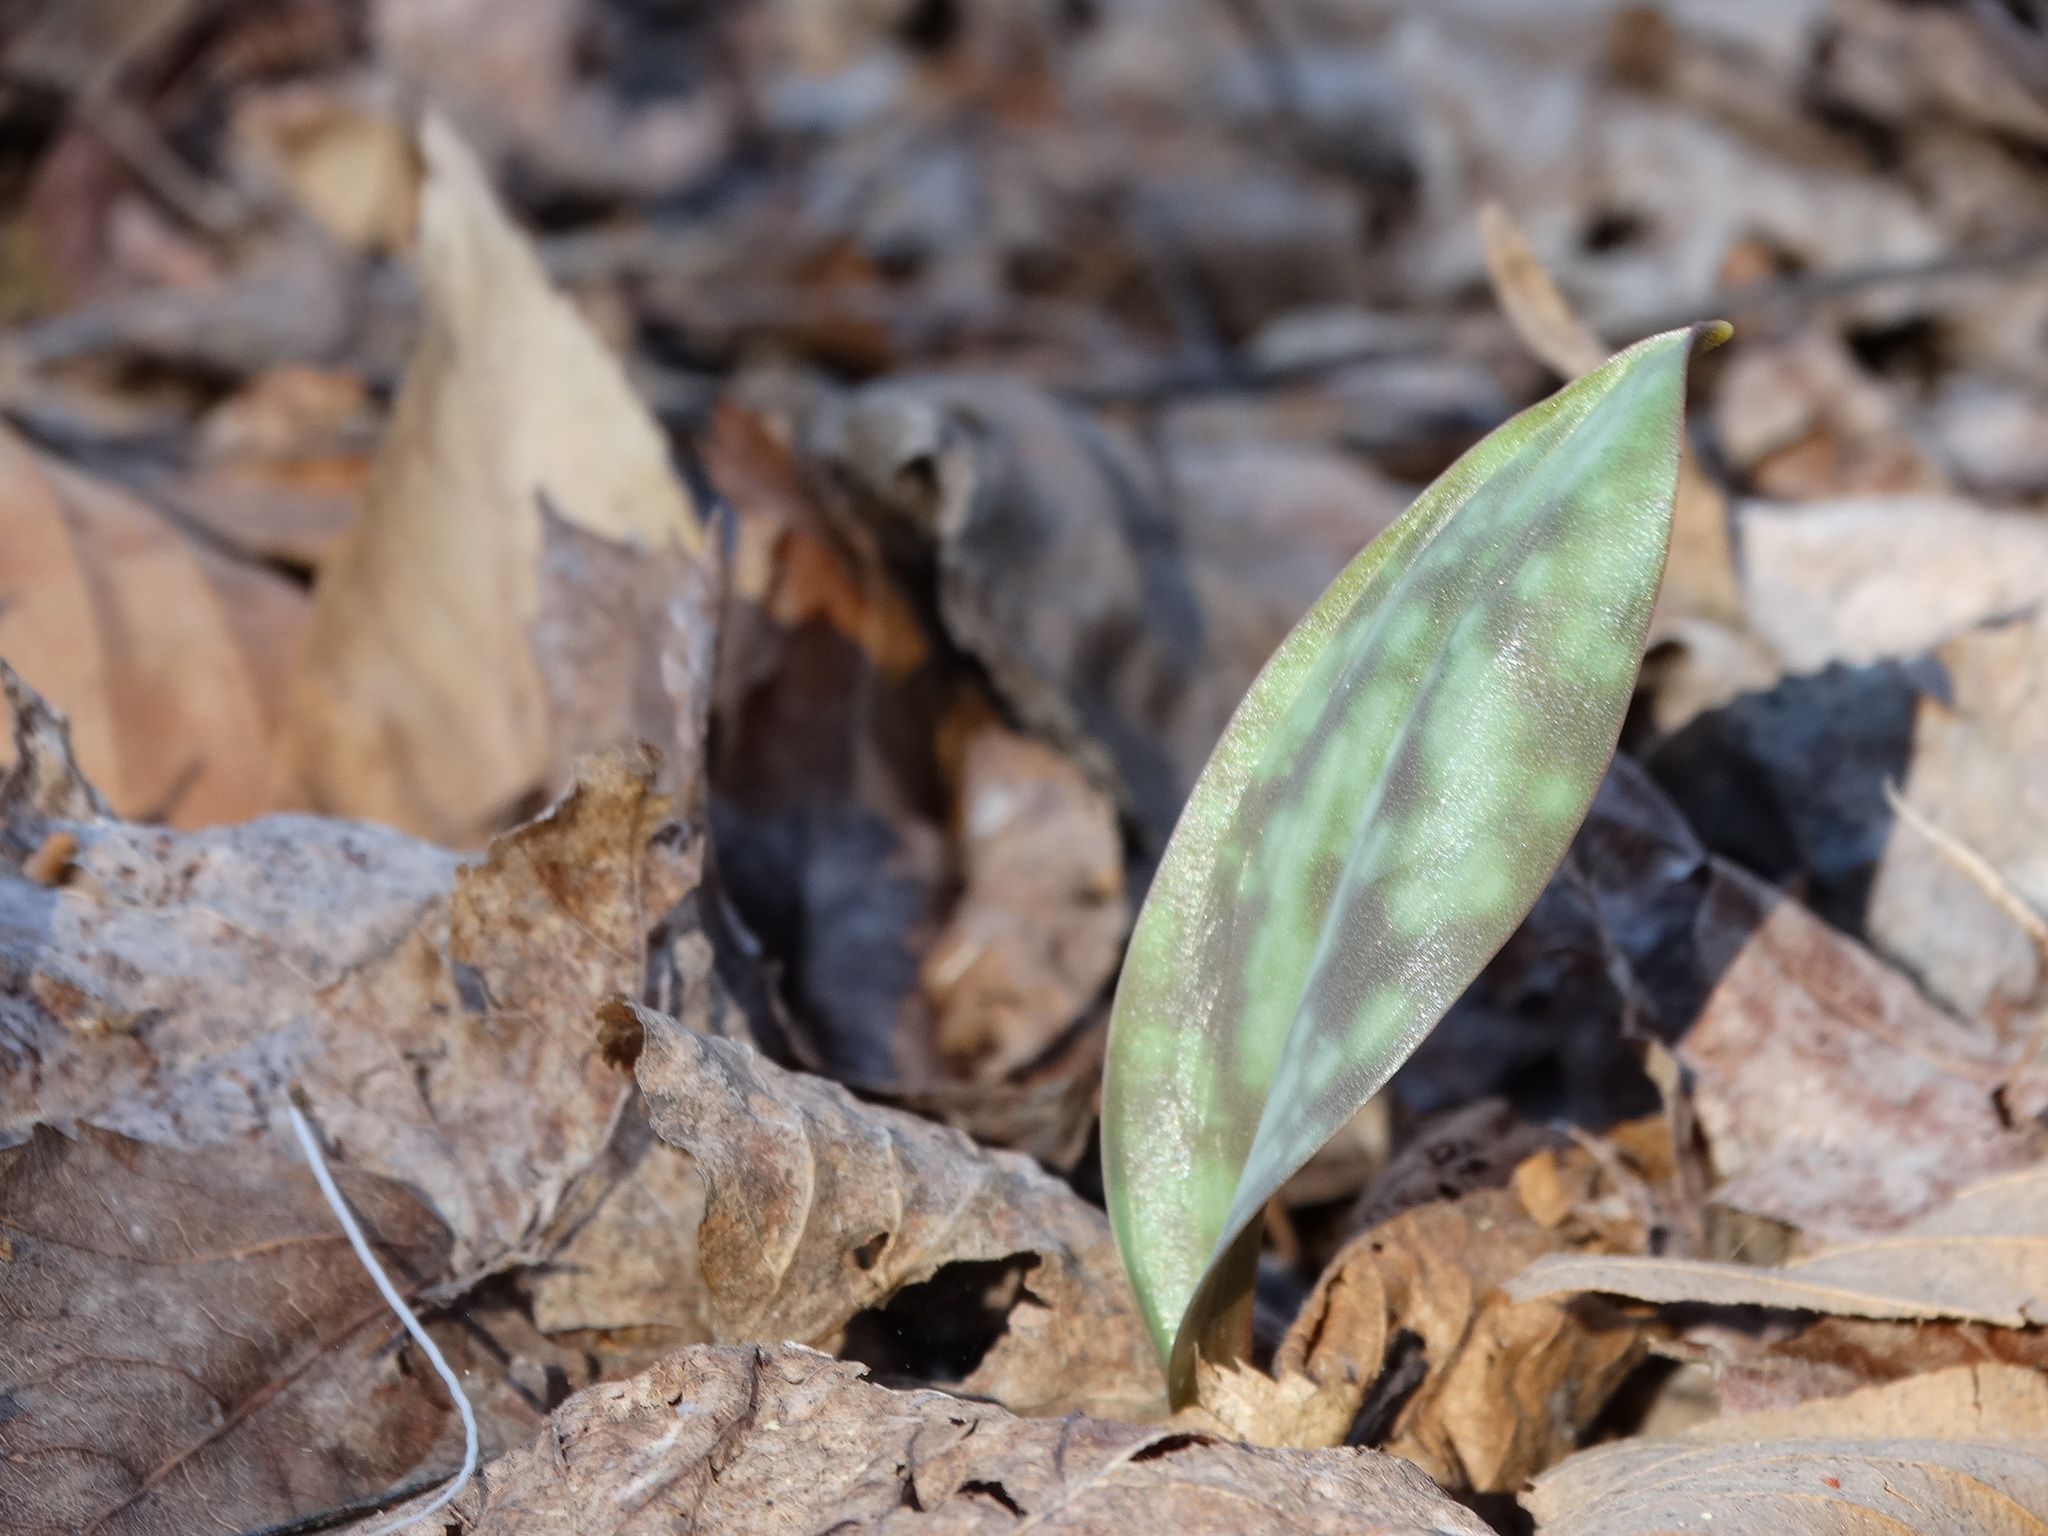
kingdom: Plantae
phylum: Tracheophyta
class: Liliopsida
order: Liliales
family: Liliaceae
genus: Erythronium
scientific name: Erythronium americanum
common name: Yellow adder's-tongue
